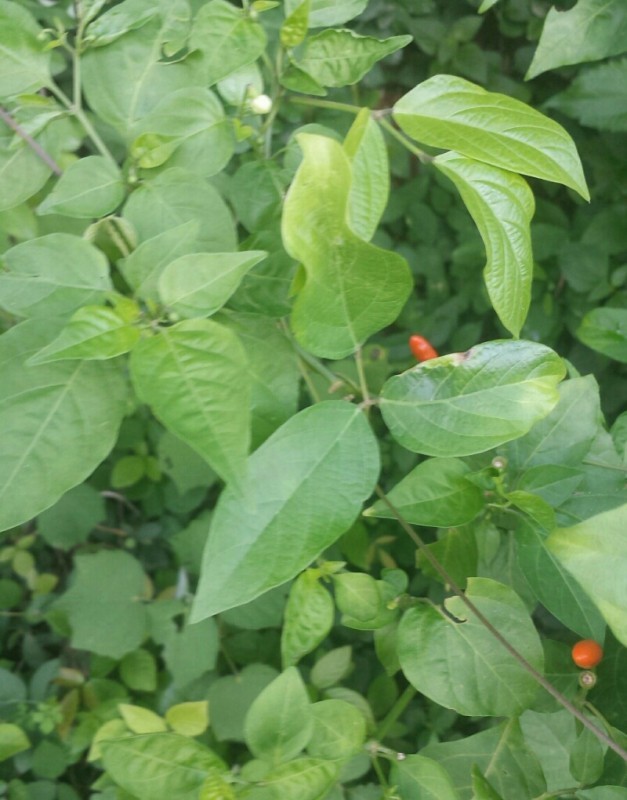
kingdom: Plantae
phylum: Tracheophyta
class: Magnoliopsida
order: Solanales
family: Solanaceae
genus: Capsicum
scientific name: Capsicum frutescens
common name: Bird pepper
